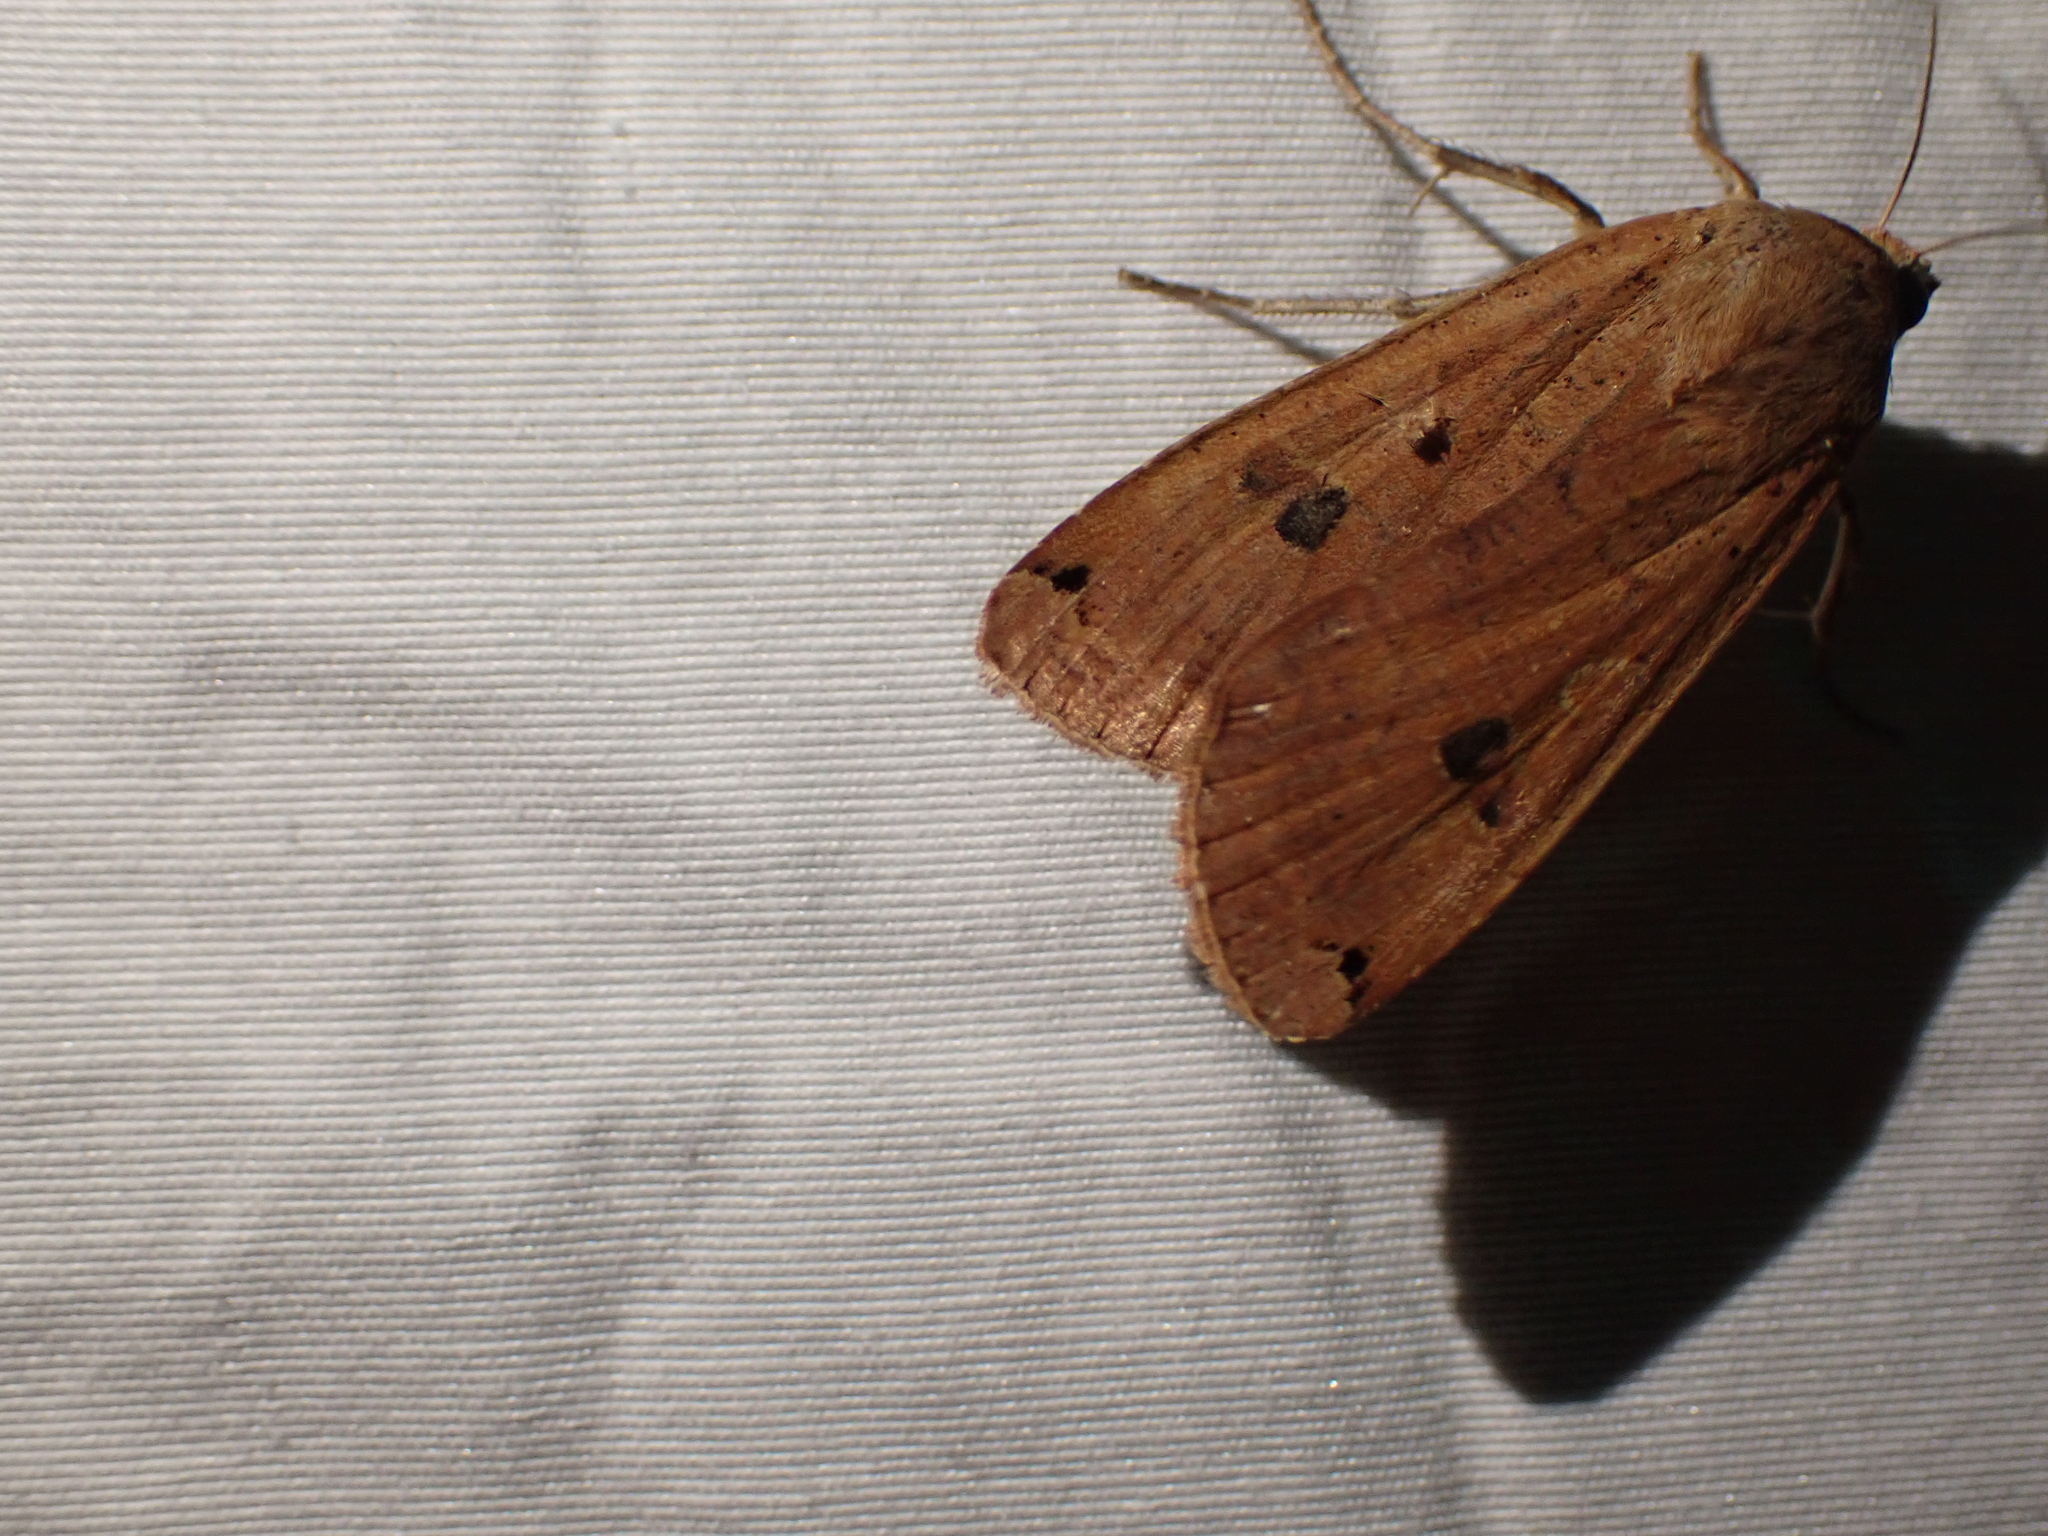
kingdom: Animalia
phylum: Arthropoda
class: Insecta
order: Lepidoptera
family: Noctuidae
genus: Noctua
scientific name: Noctua pronuba
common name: Large yellow underwing
